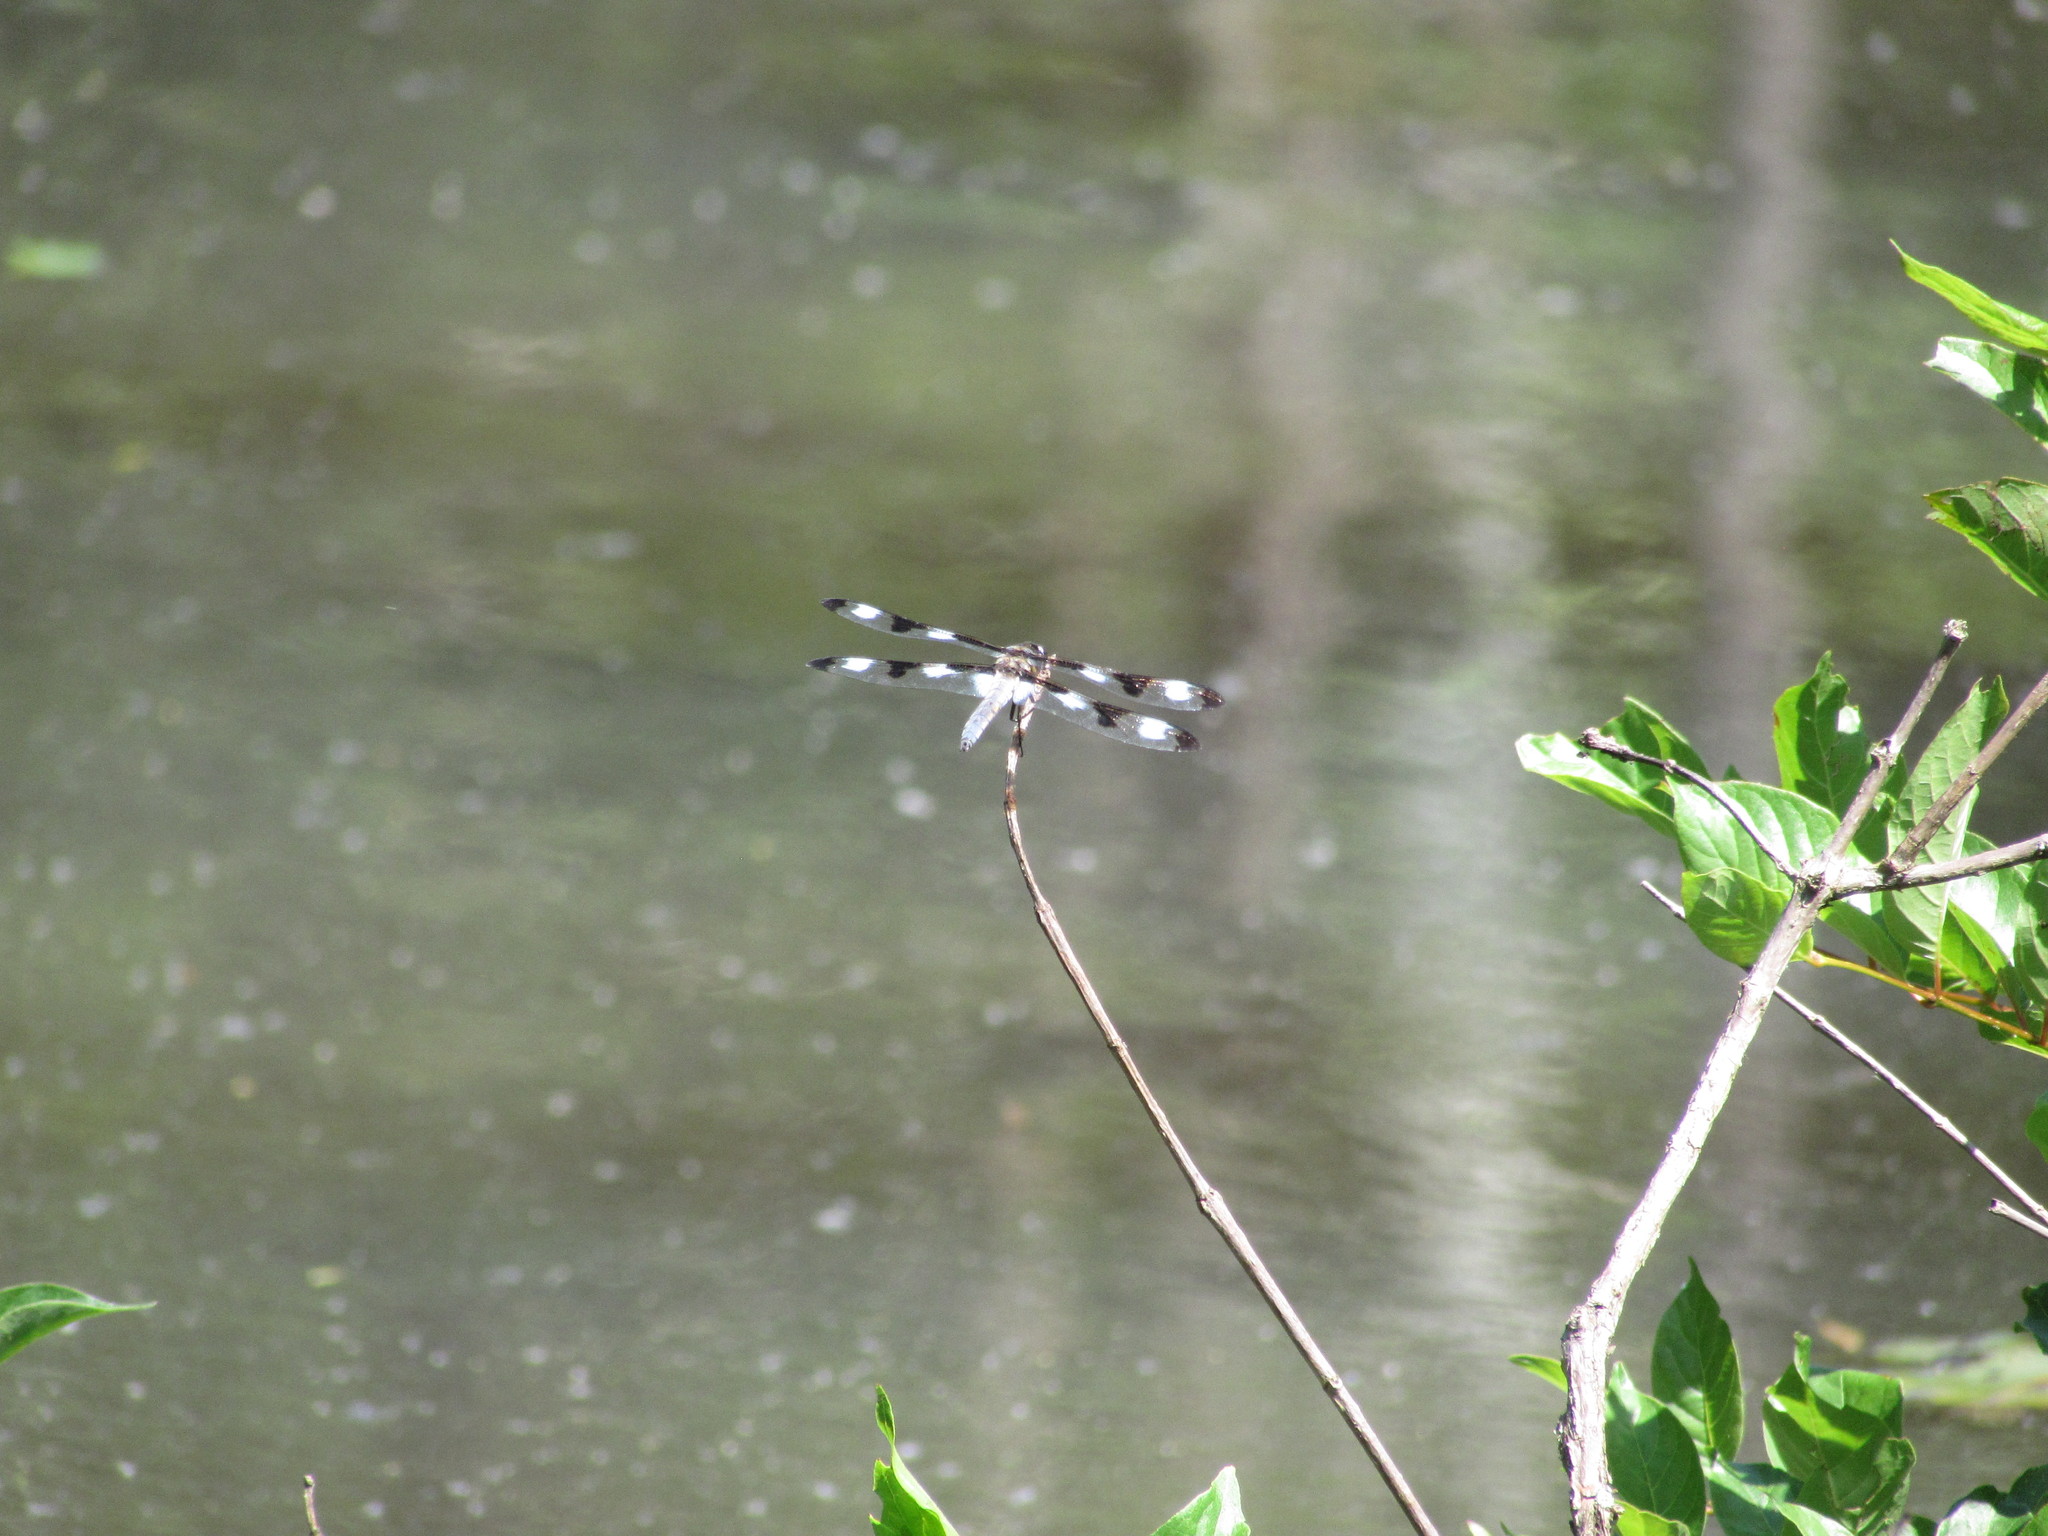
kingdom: Animalia
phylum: Arthropoda
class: Insecta
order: Odonata
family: Libellulidae
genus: Libellula
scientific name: Libellula pulchella
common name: Twelve-spotted skimmer
